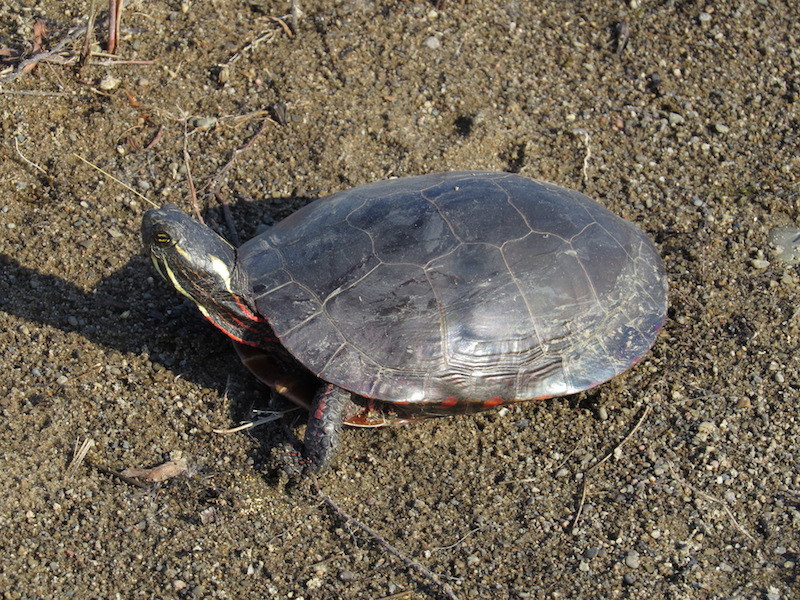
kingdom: Animalia
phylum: Chordata
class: Testudines
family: Emydidae
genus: Chrysemys
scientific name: Chrysemys picta
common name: Painted turtle
